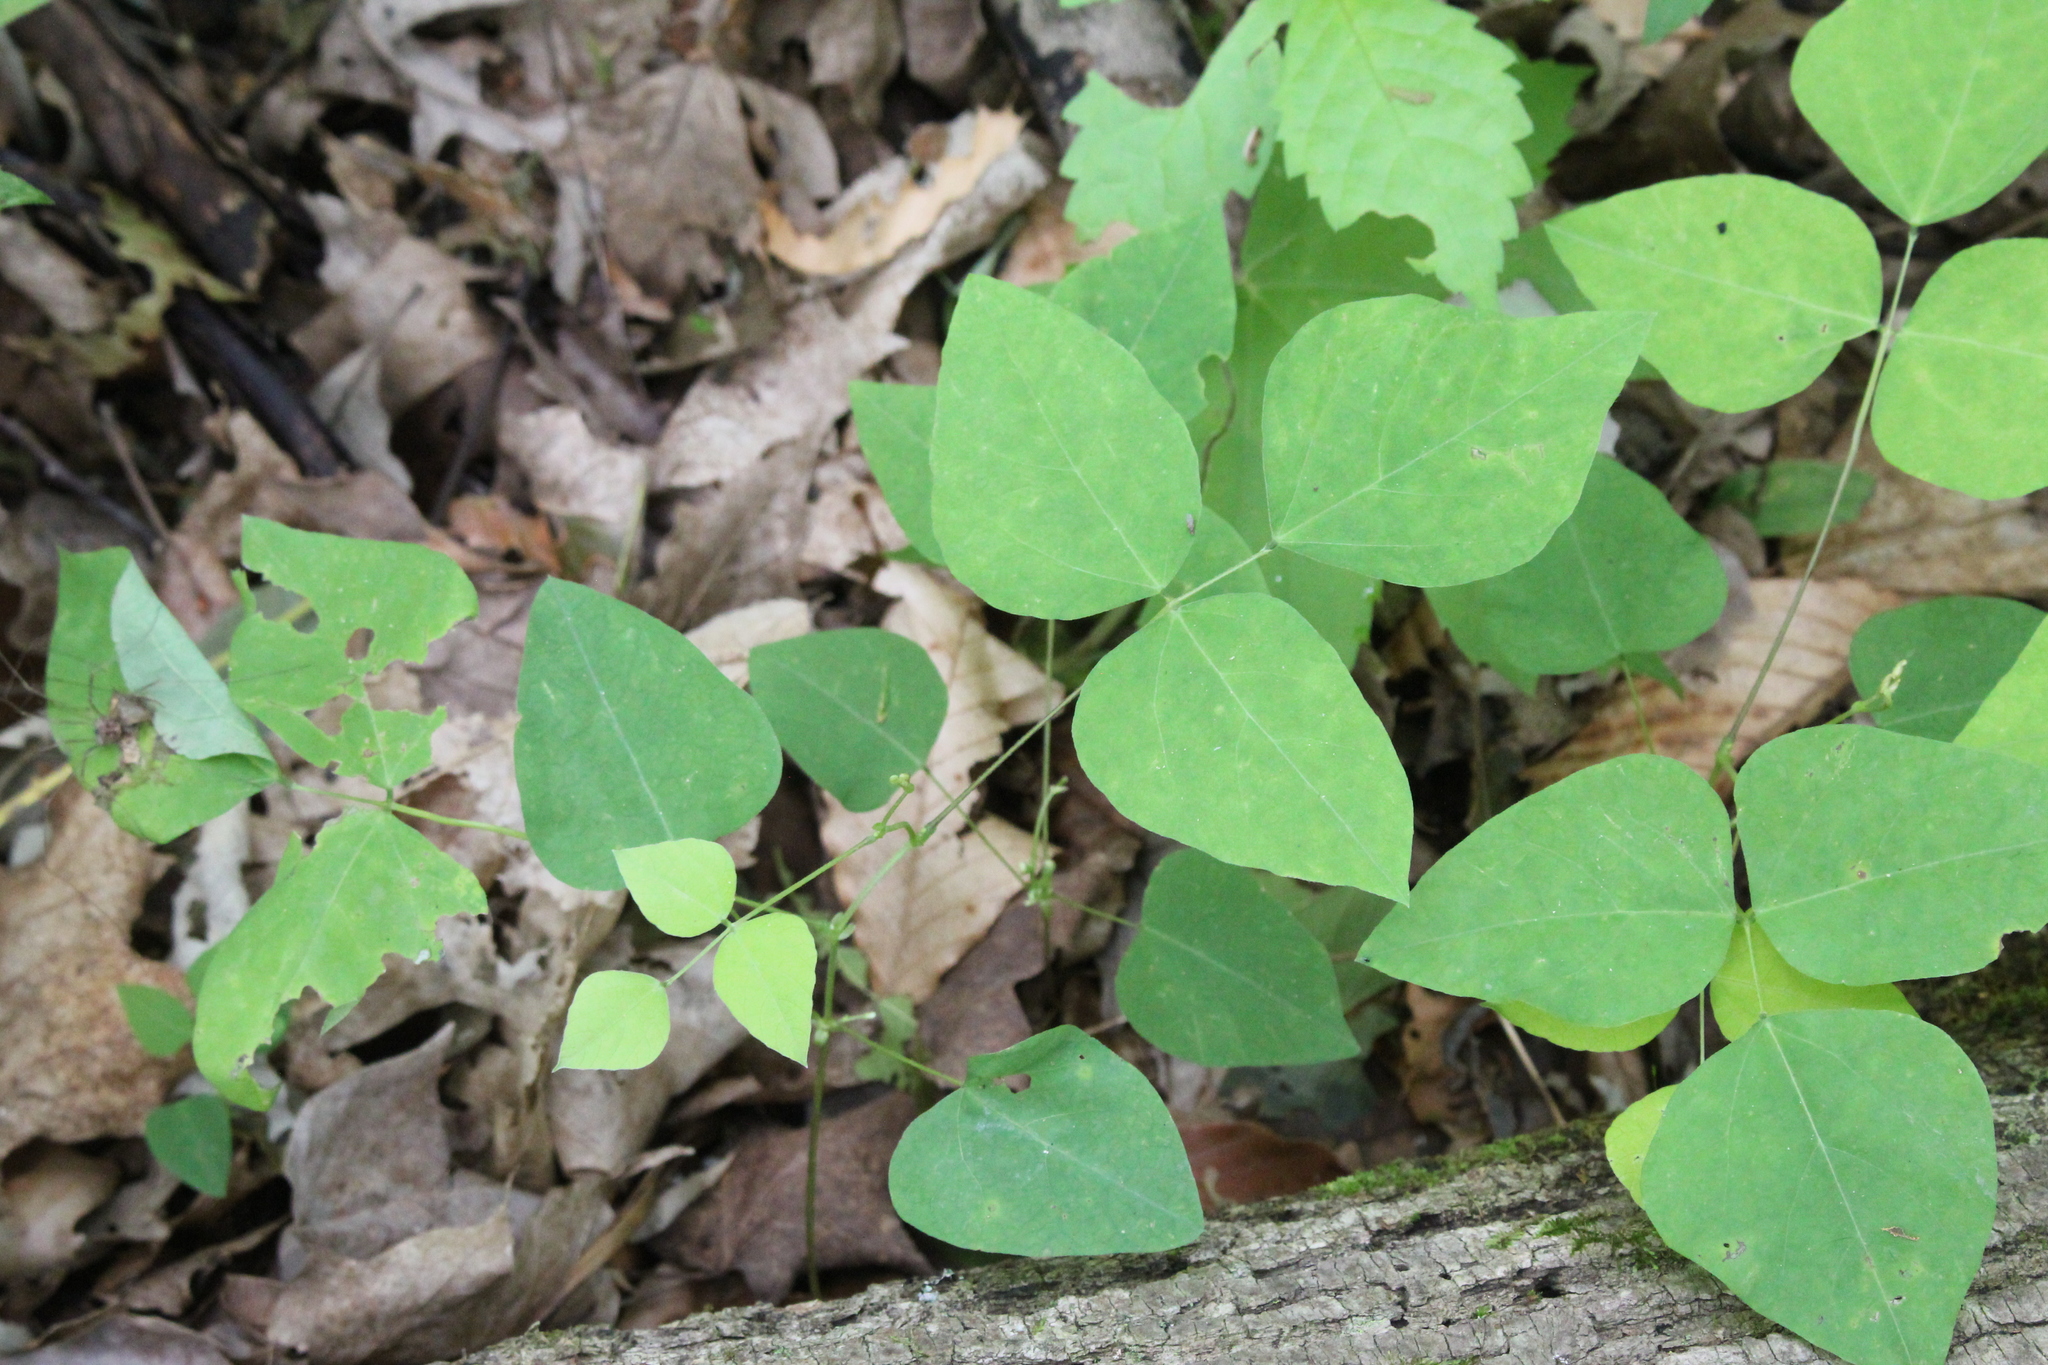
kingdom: Plantae
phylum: Tracheophyta
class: Magnoliopsida
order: Fabales
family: Fabaceae
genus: Amphicarpaea
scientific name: Amphicarpaea bracteata
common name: American hog peanut
